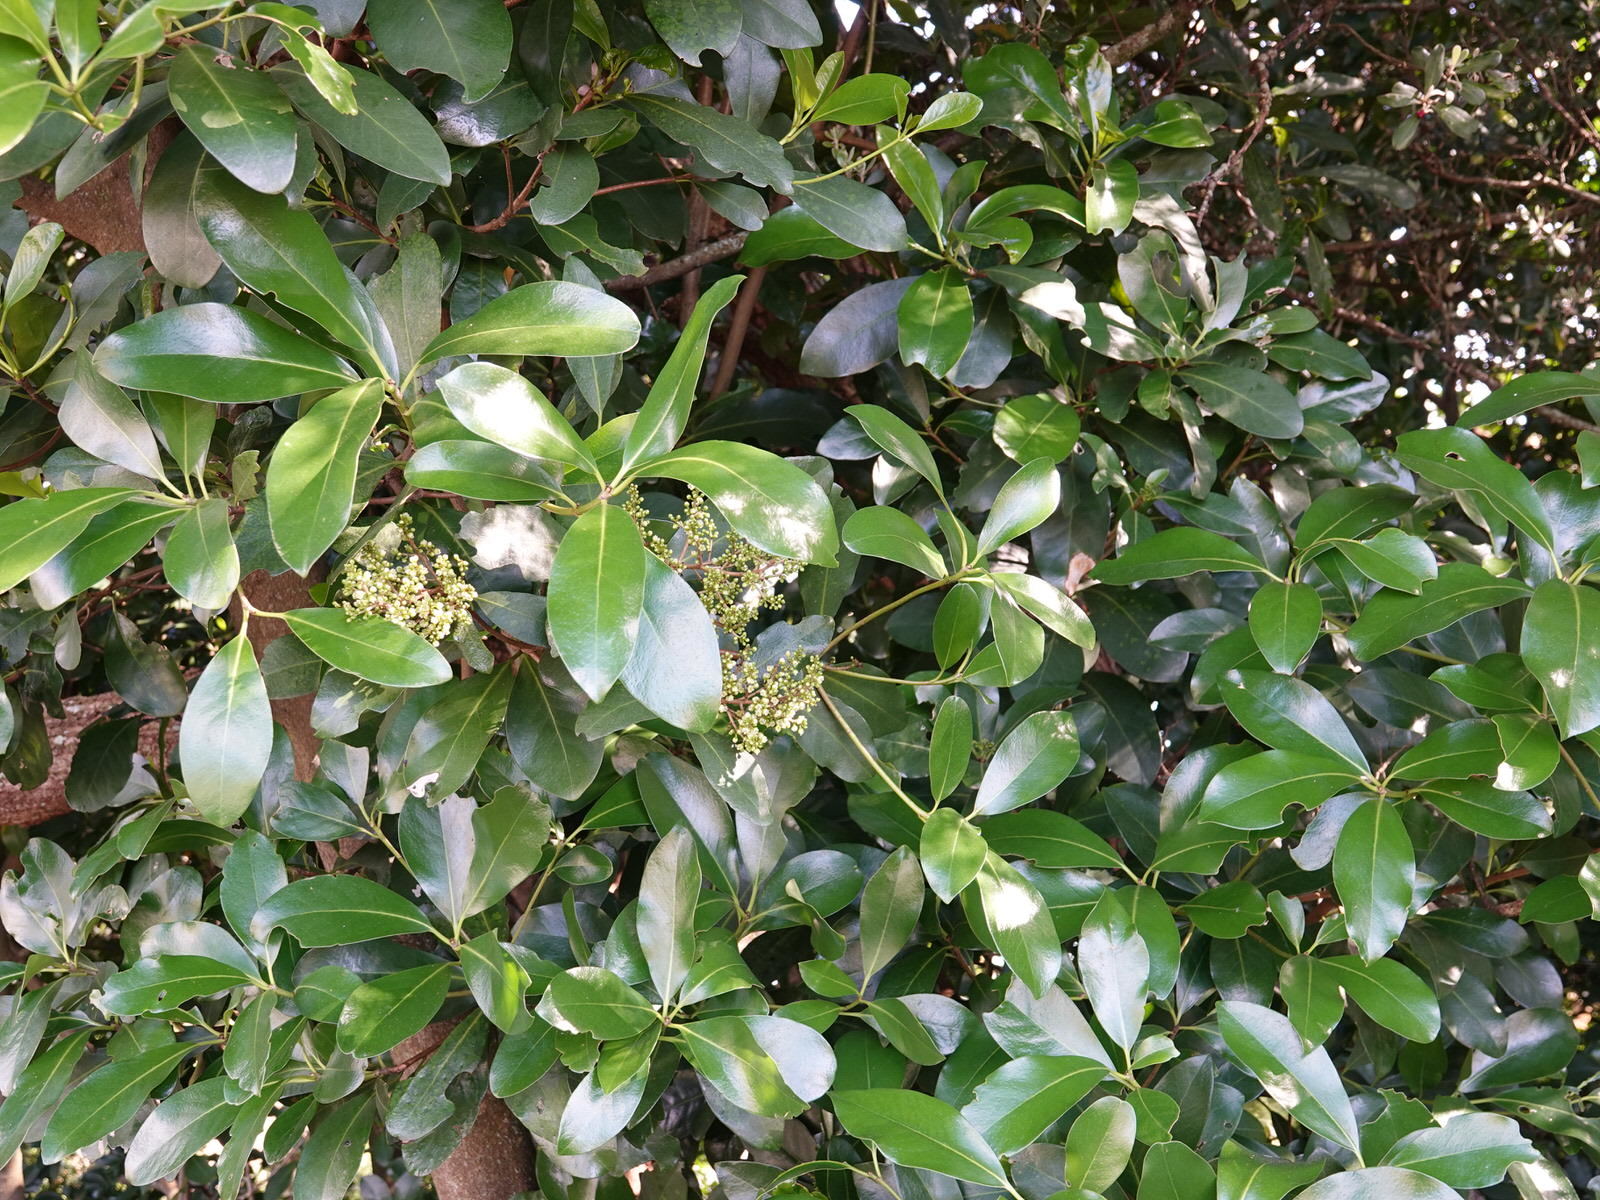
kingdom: Plantae
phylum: Tracheophyta
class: Magnoliopsida
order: Cucurbitales
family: Corynocarpaceae
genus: Corynocarpus
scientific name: Corynocarpus laevigatus
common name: New zealand laurel
